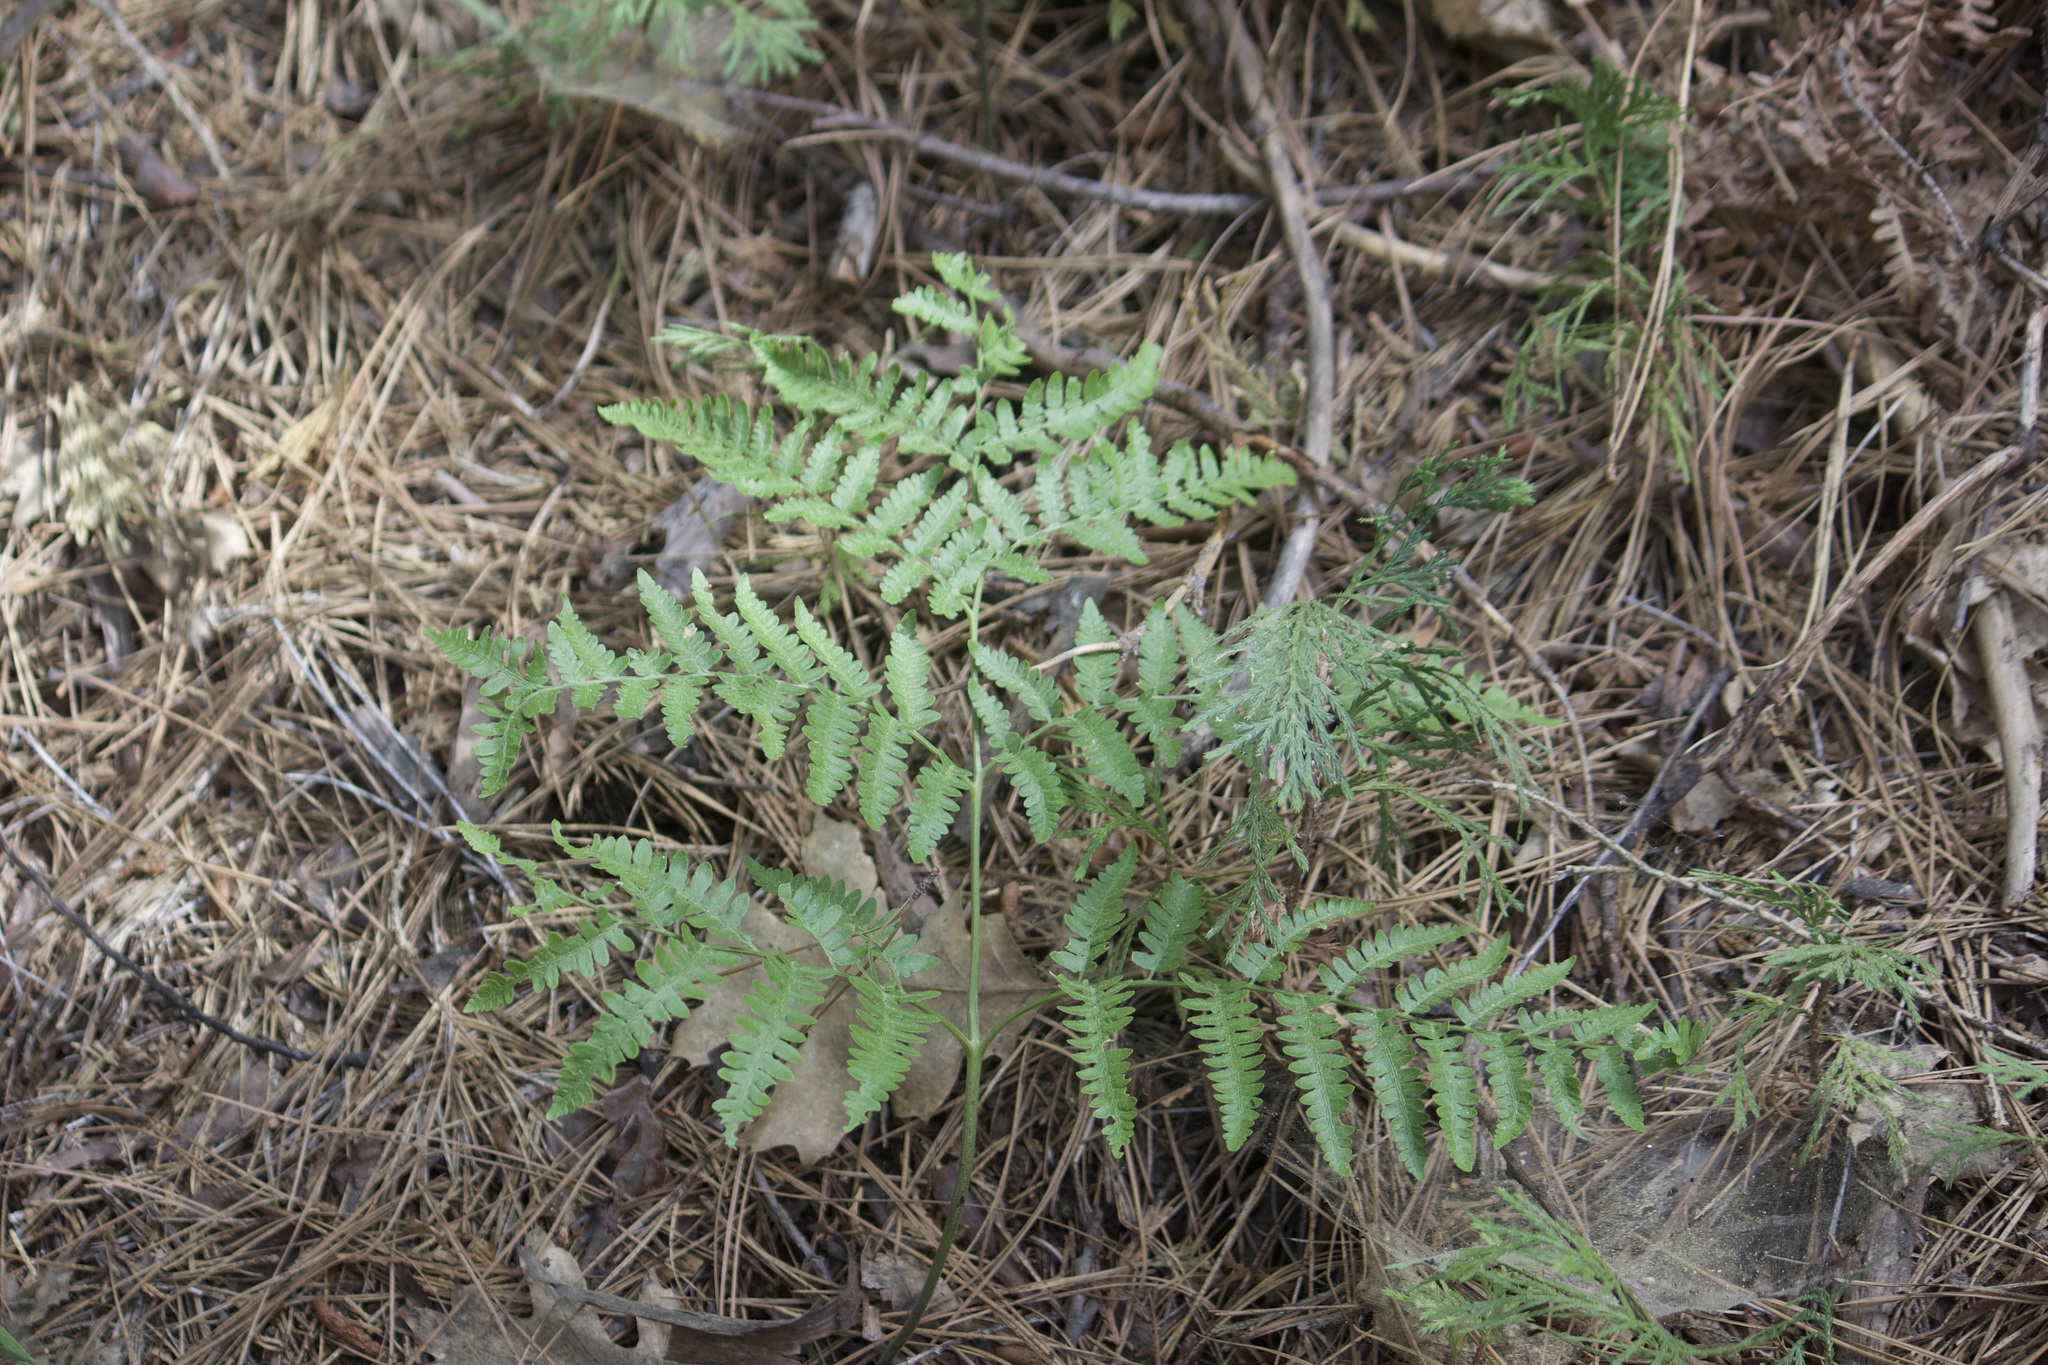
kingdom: Plantae
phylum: Tracheophyta
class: Polypodiopsida
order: Polypodiales
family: Dennstaedtiaceae
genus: Pteridium
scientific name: Pteridium aquilinum
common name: Bracken
